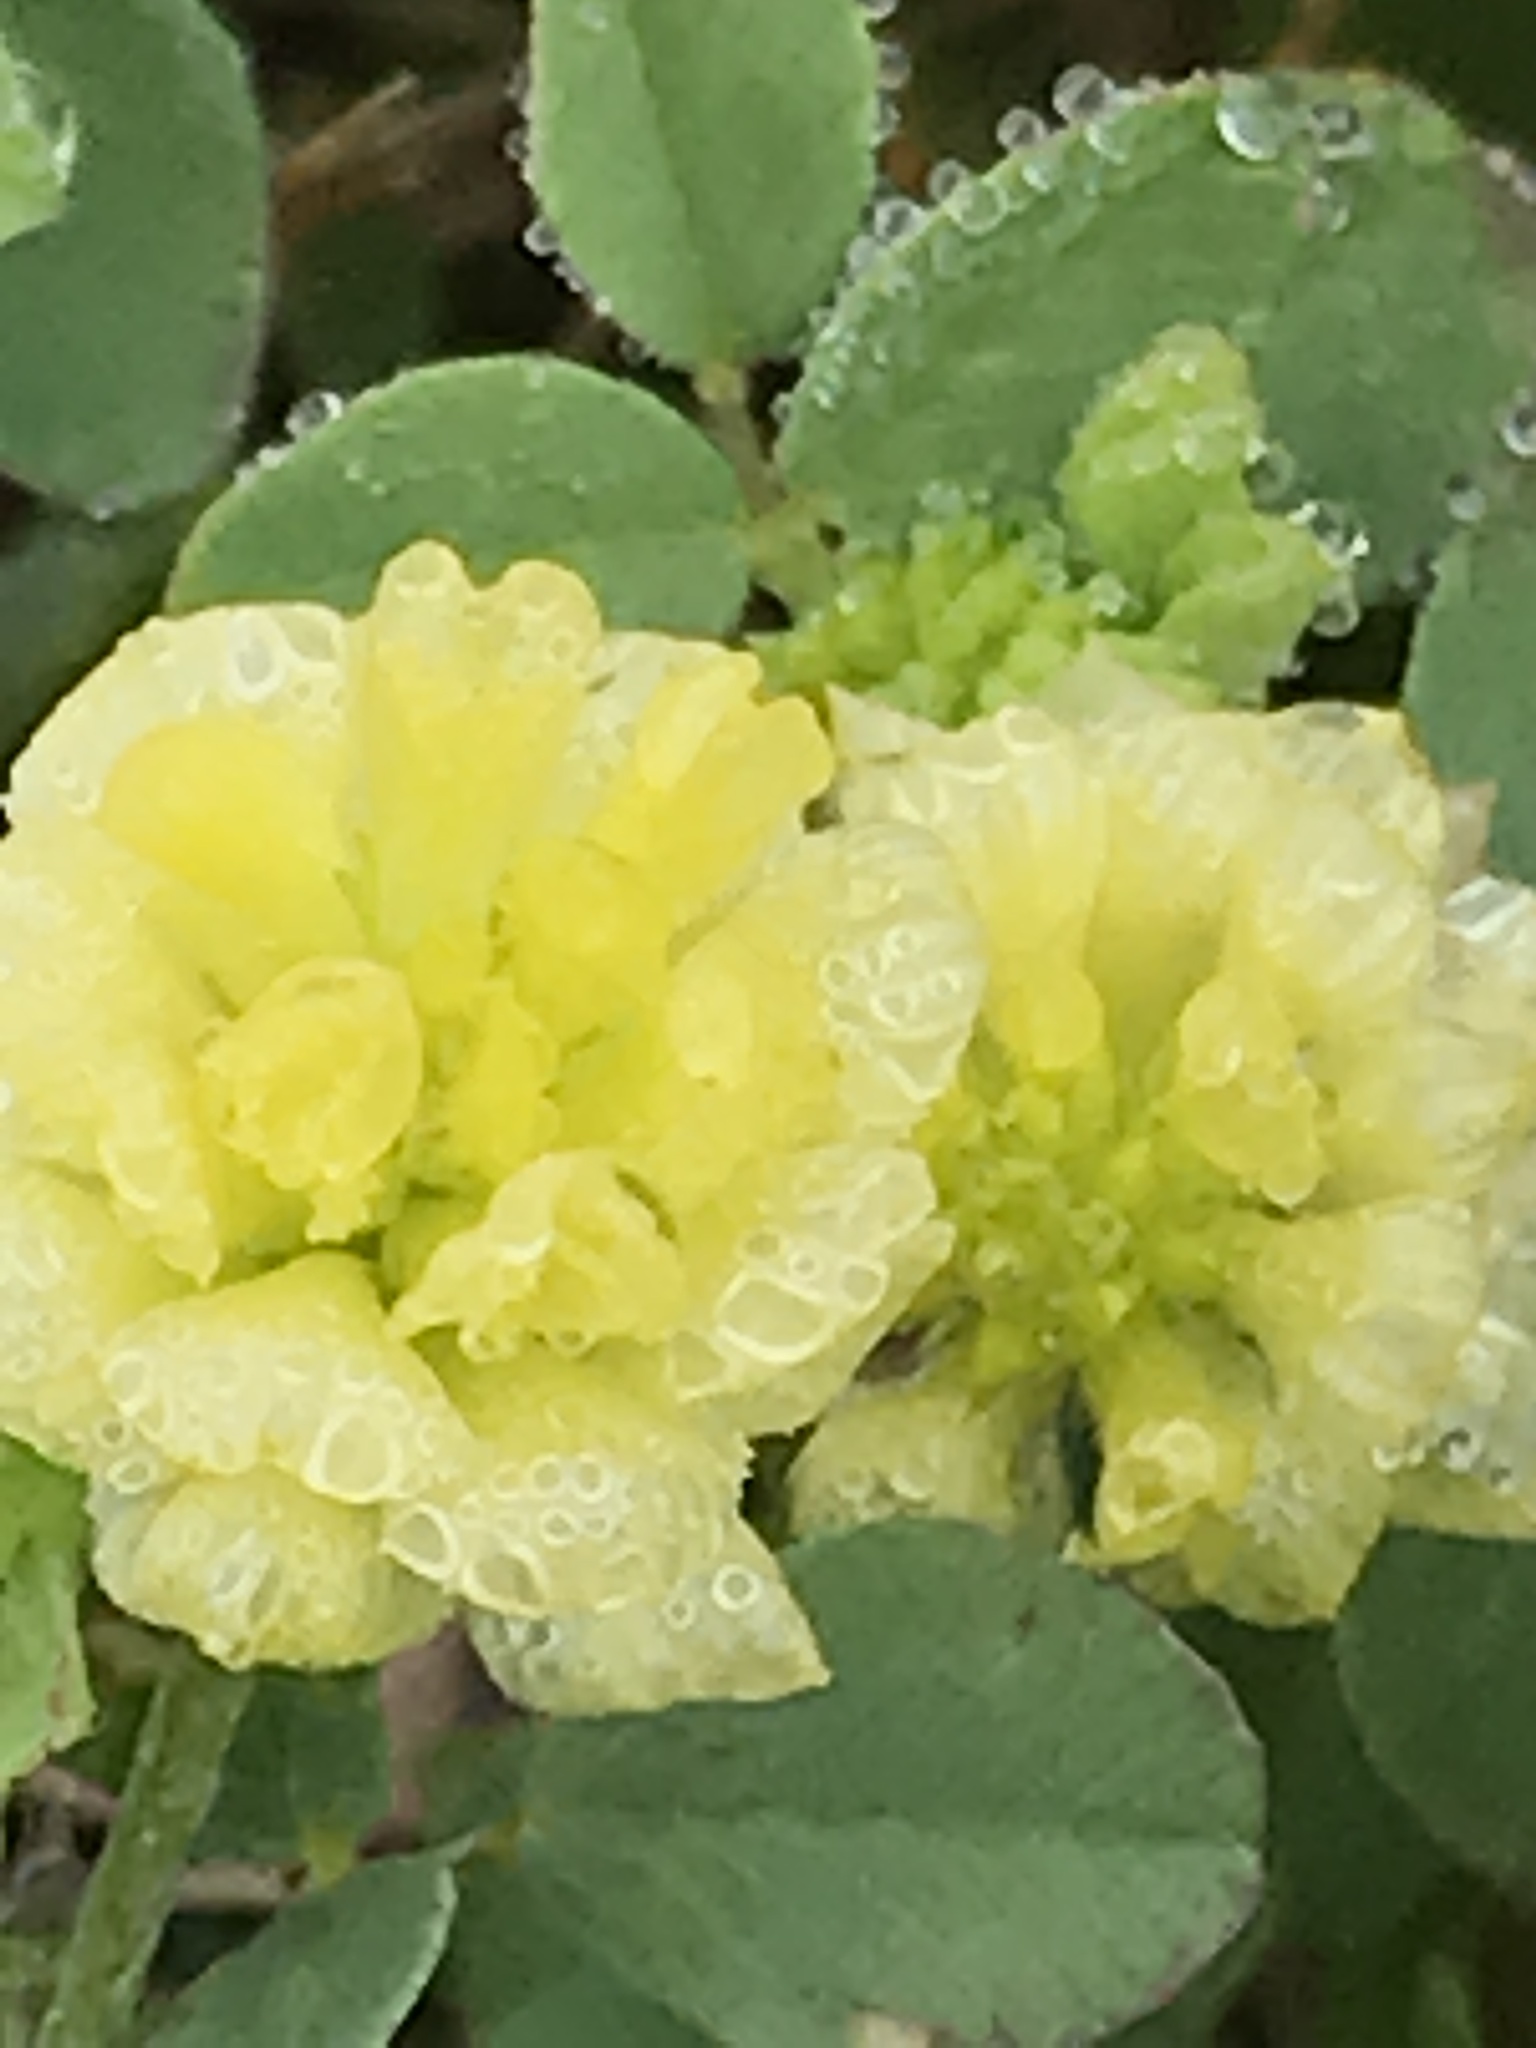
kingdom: Plantae
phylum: Tracheophyta
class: Magnoliopsida
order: Fabales
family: Fabaceae
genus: Trifolium
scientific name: Trifolium campestre
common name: Field clover
